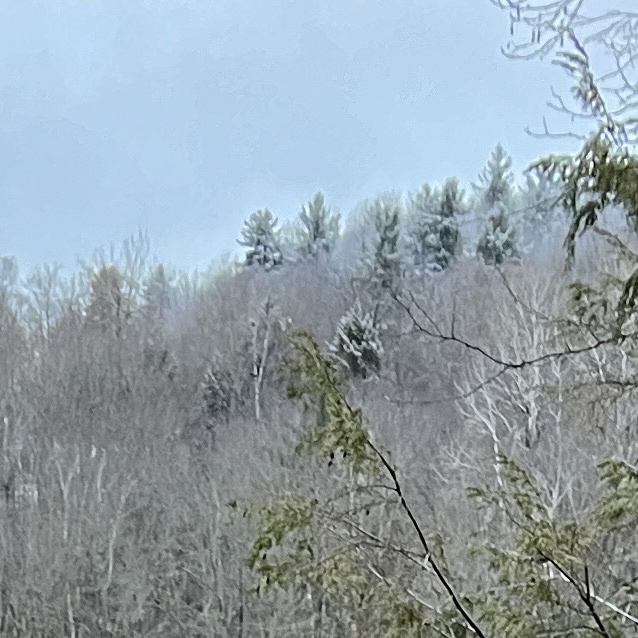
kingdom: Plantae
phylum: Tracheophyta
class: Pinopsida
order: Pinales
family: Pinaceae
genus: Pinus
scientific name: Pinus strobus
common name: Weymouth pine
